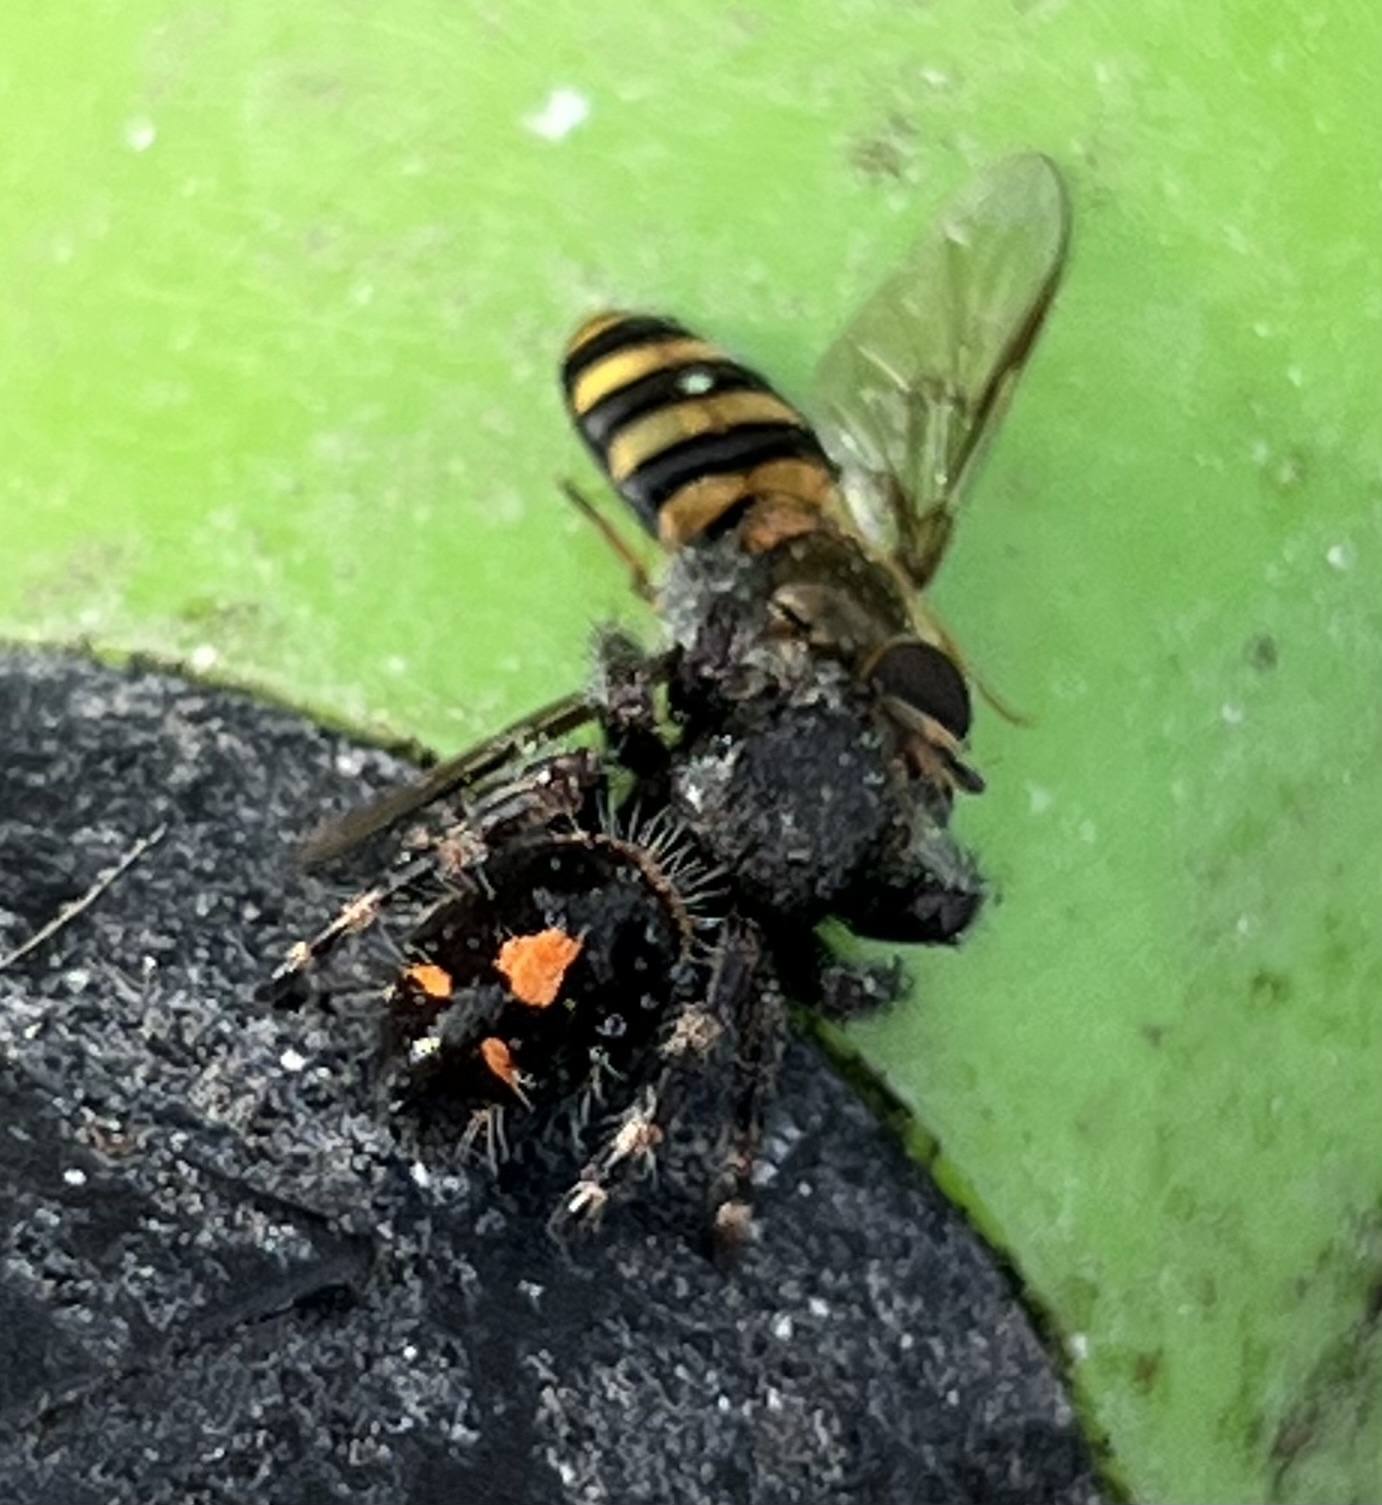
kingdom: Animalia
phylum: Arthropoda
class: Arachnida
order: Araneae
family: Salticidae
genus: Phidippus
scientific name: Phidippus audax
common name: Bold jumper
